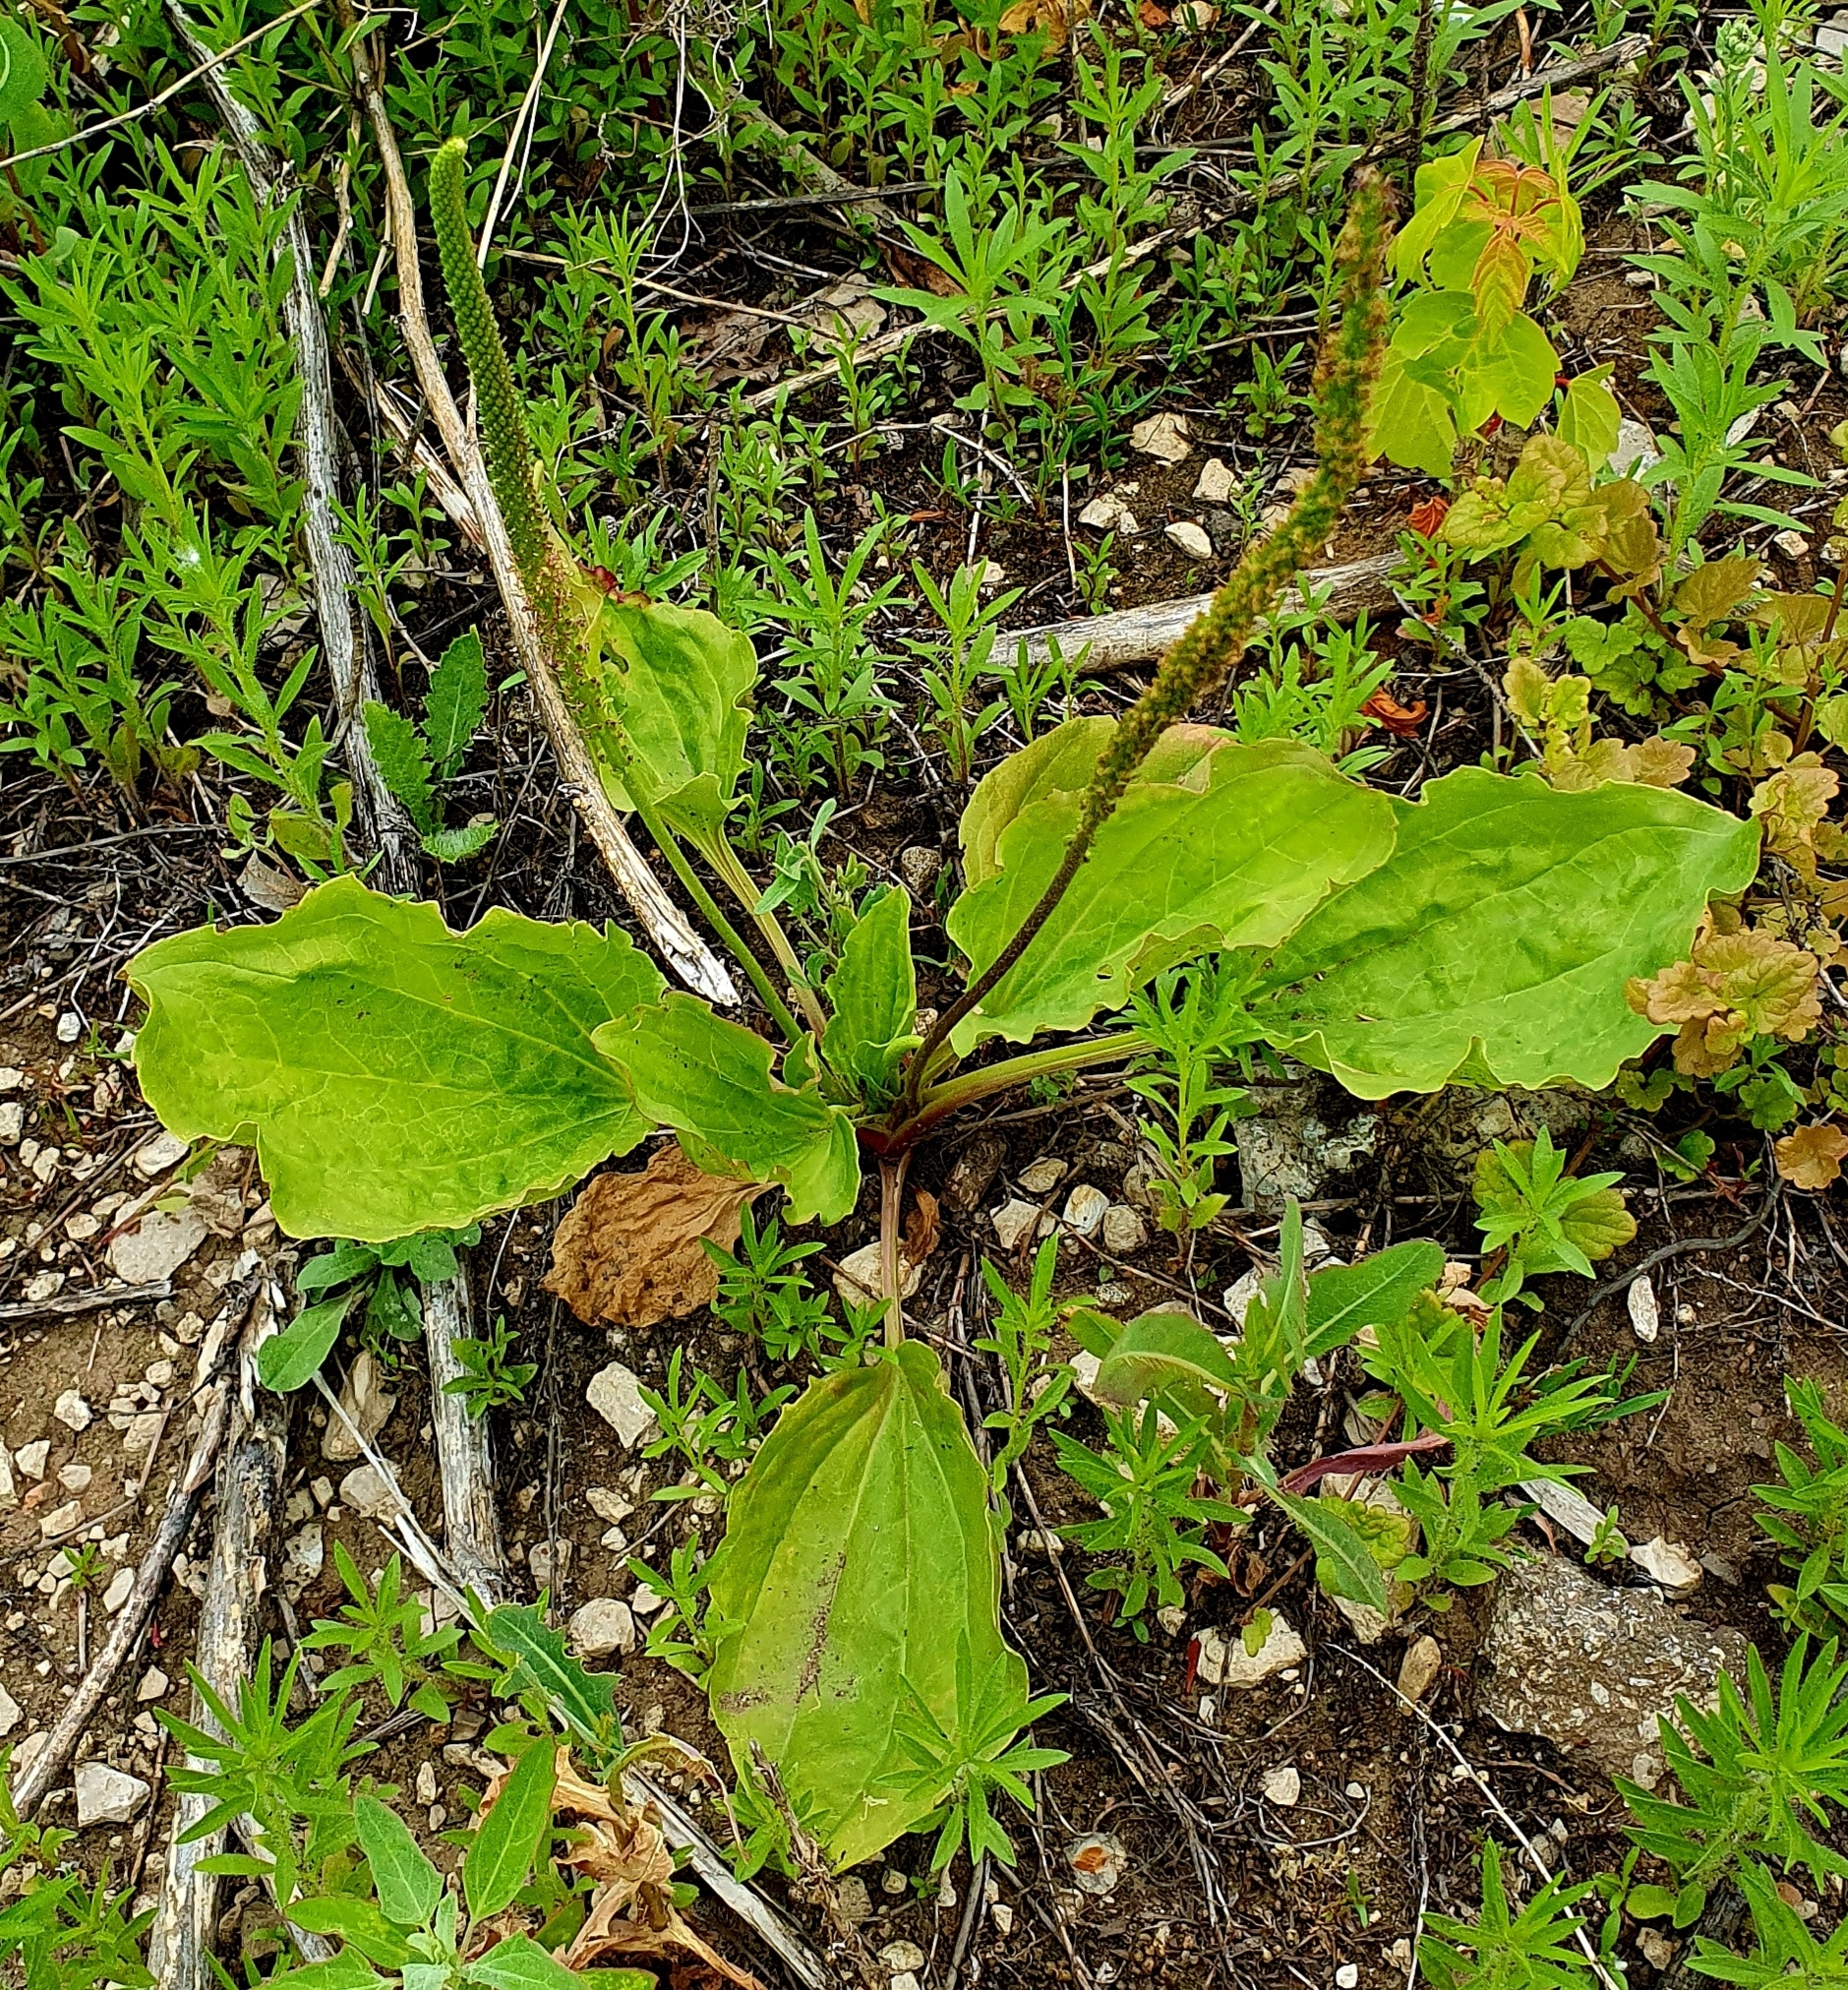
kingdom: Plantae
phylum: Tracheophyta
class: Magnoliopsida
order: Lamiales
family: Plantaginaceae
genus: Plantago
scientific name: Plantago major
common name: Common plantain
